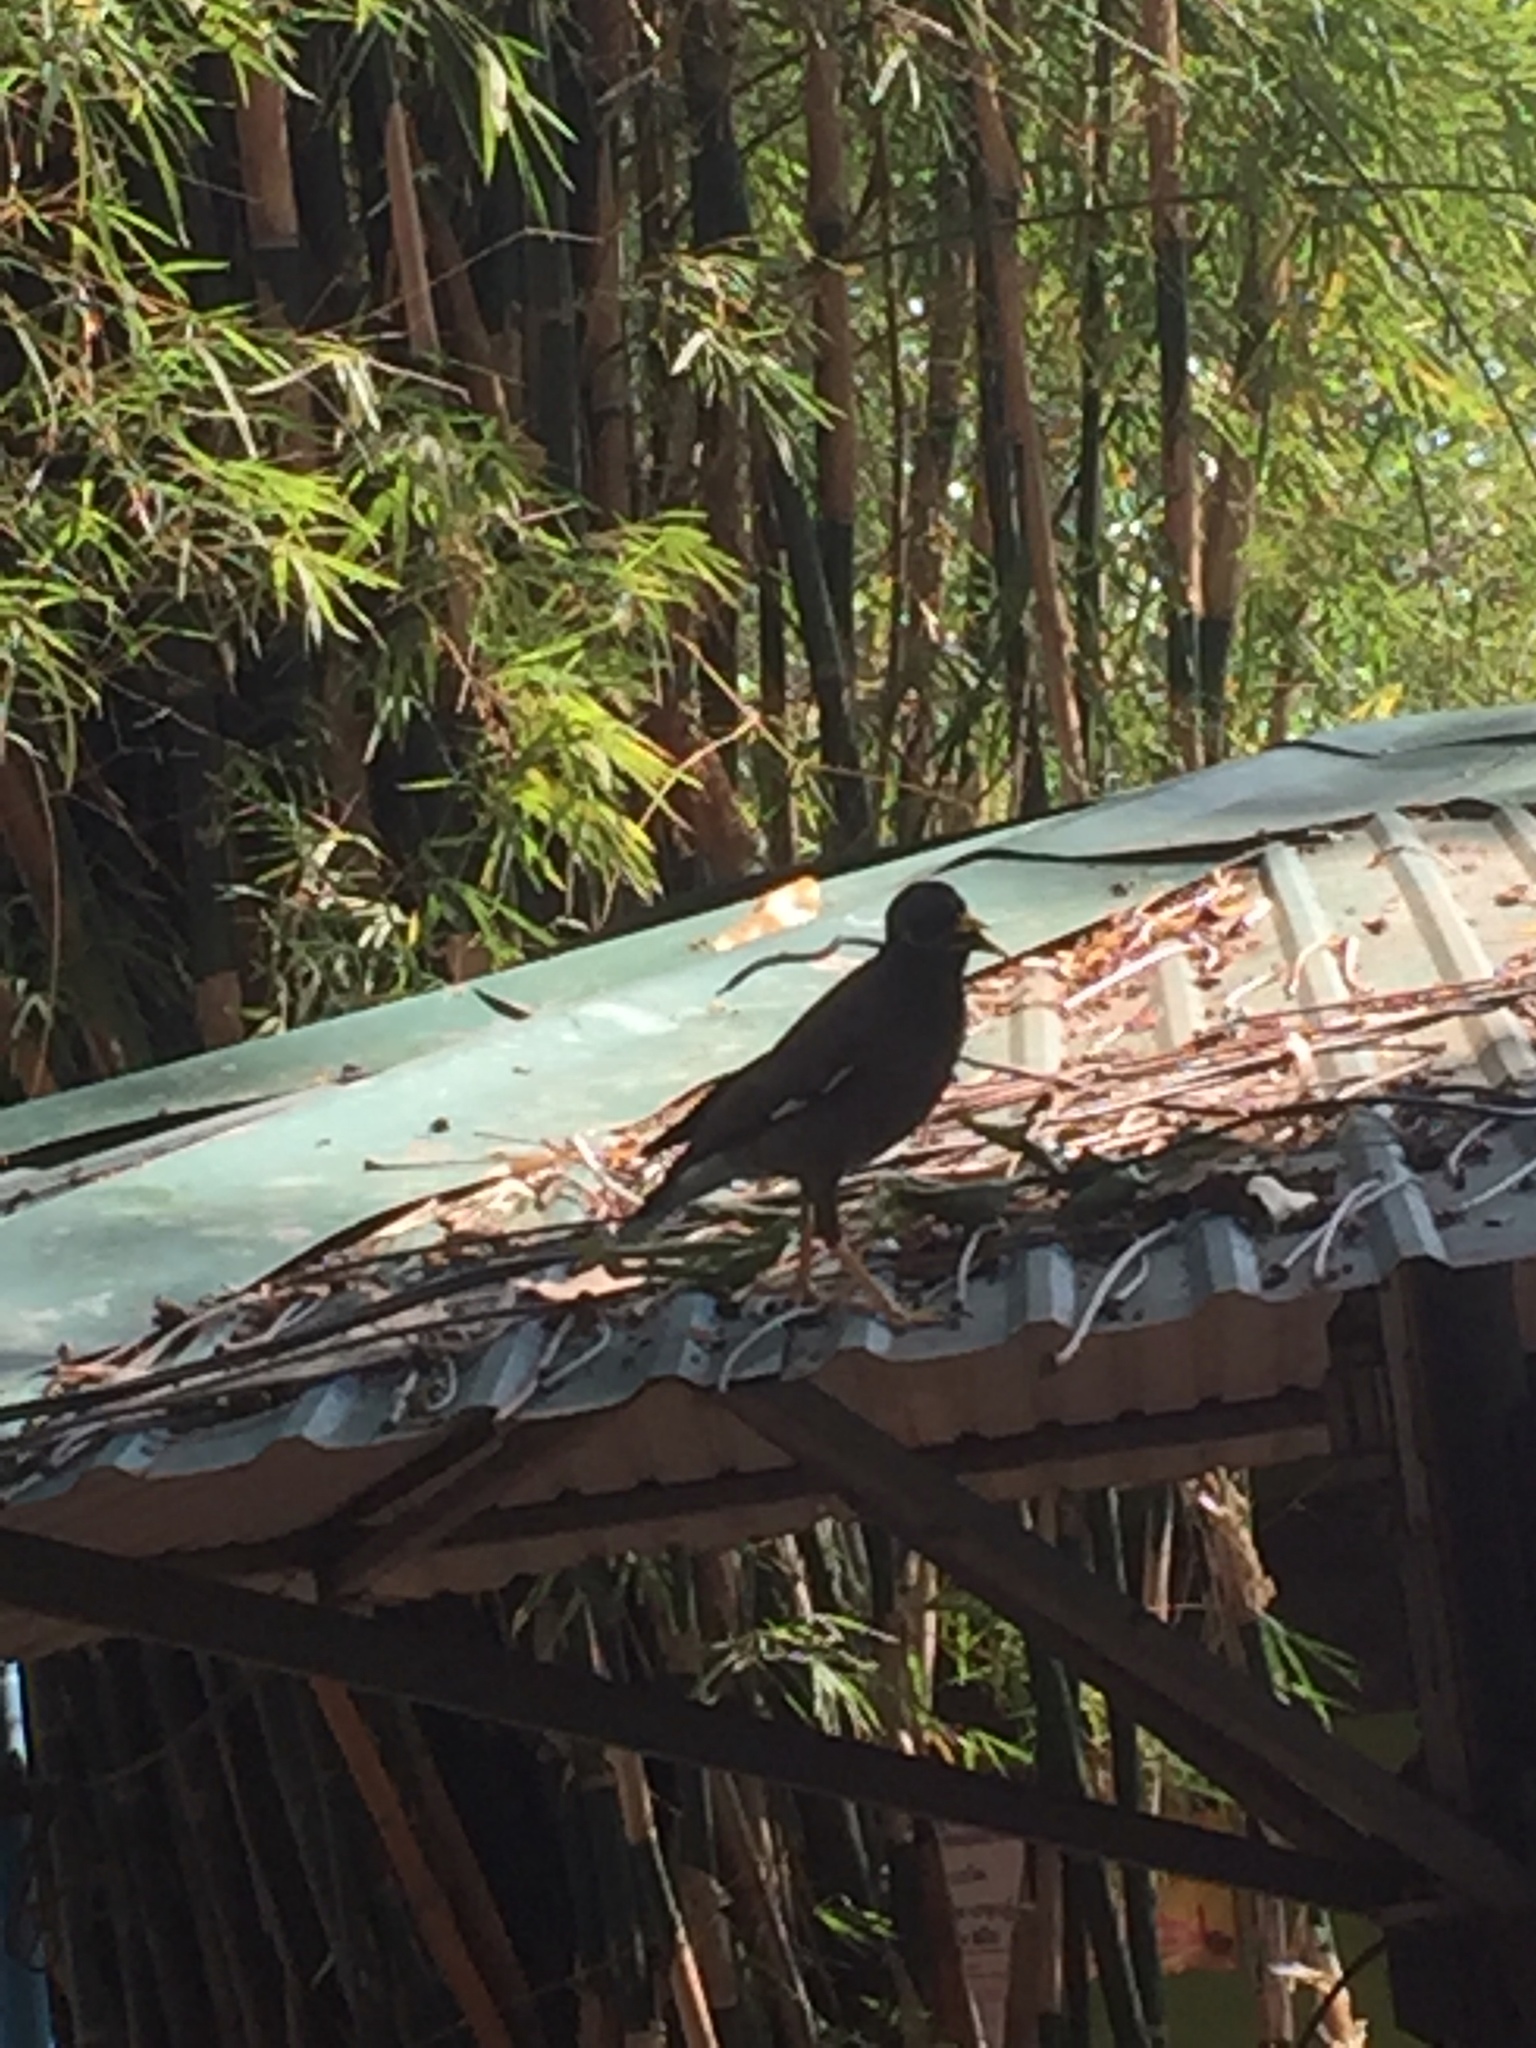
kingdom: Animalia
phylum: Chordata
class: Aves
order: Passeriformes
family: Sturnidae
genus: Acridotheres
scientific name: Acridotheres tristis
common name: Common myna
